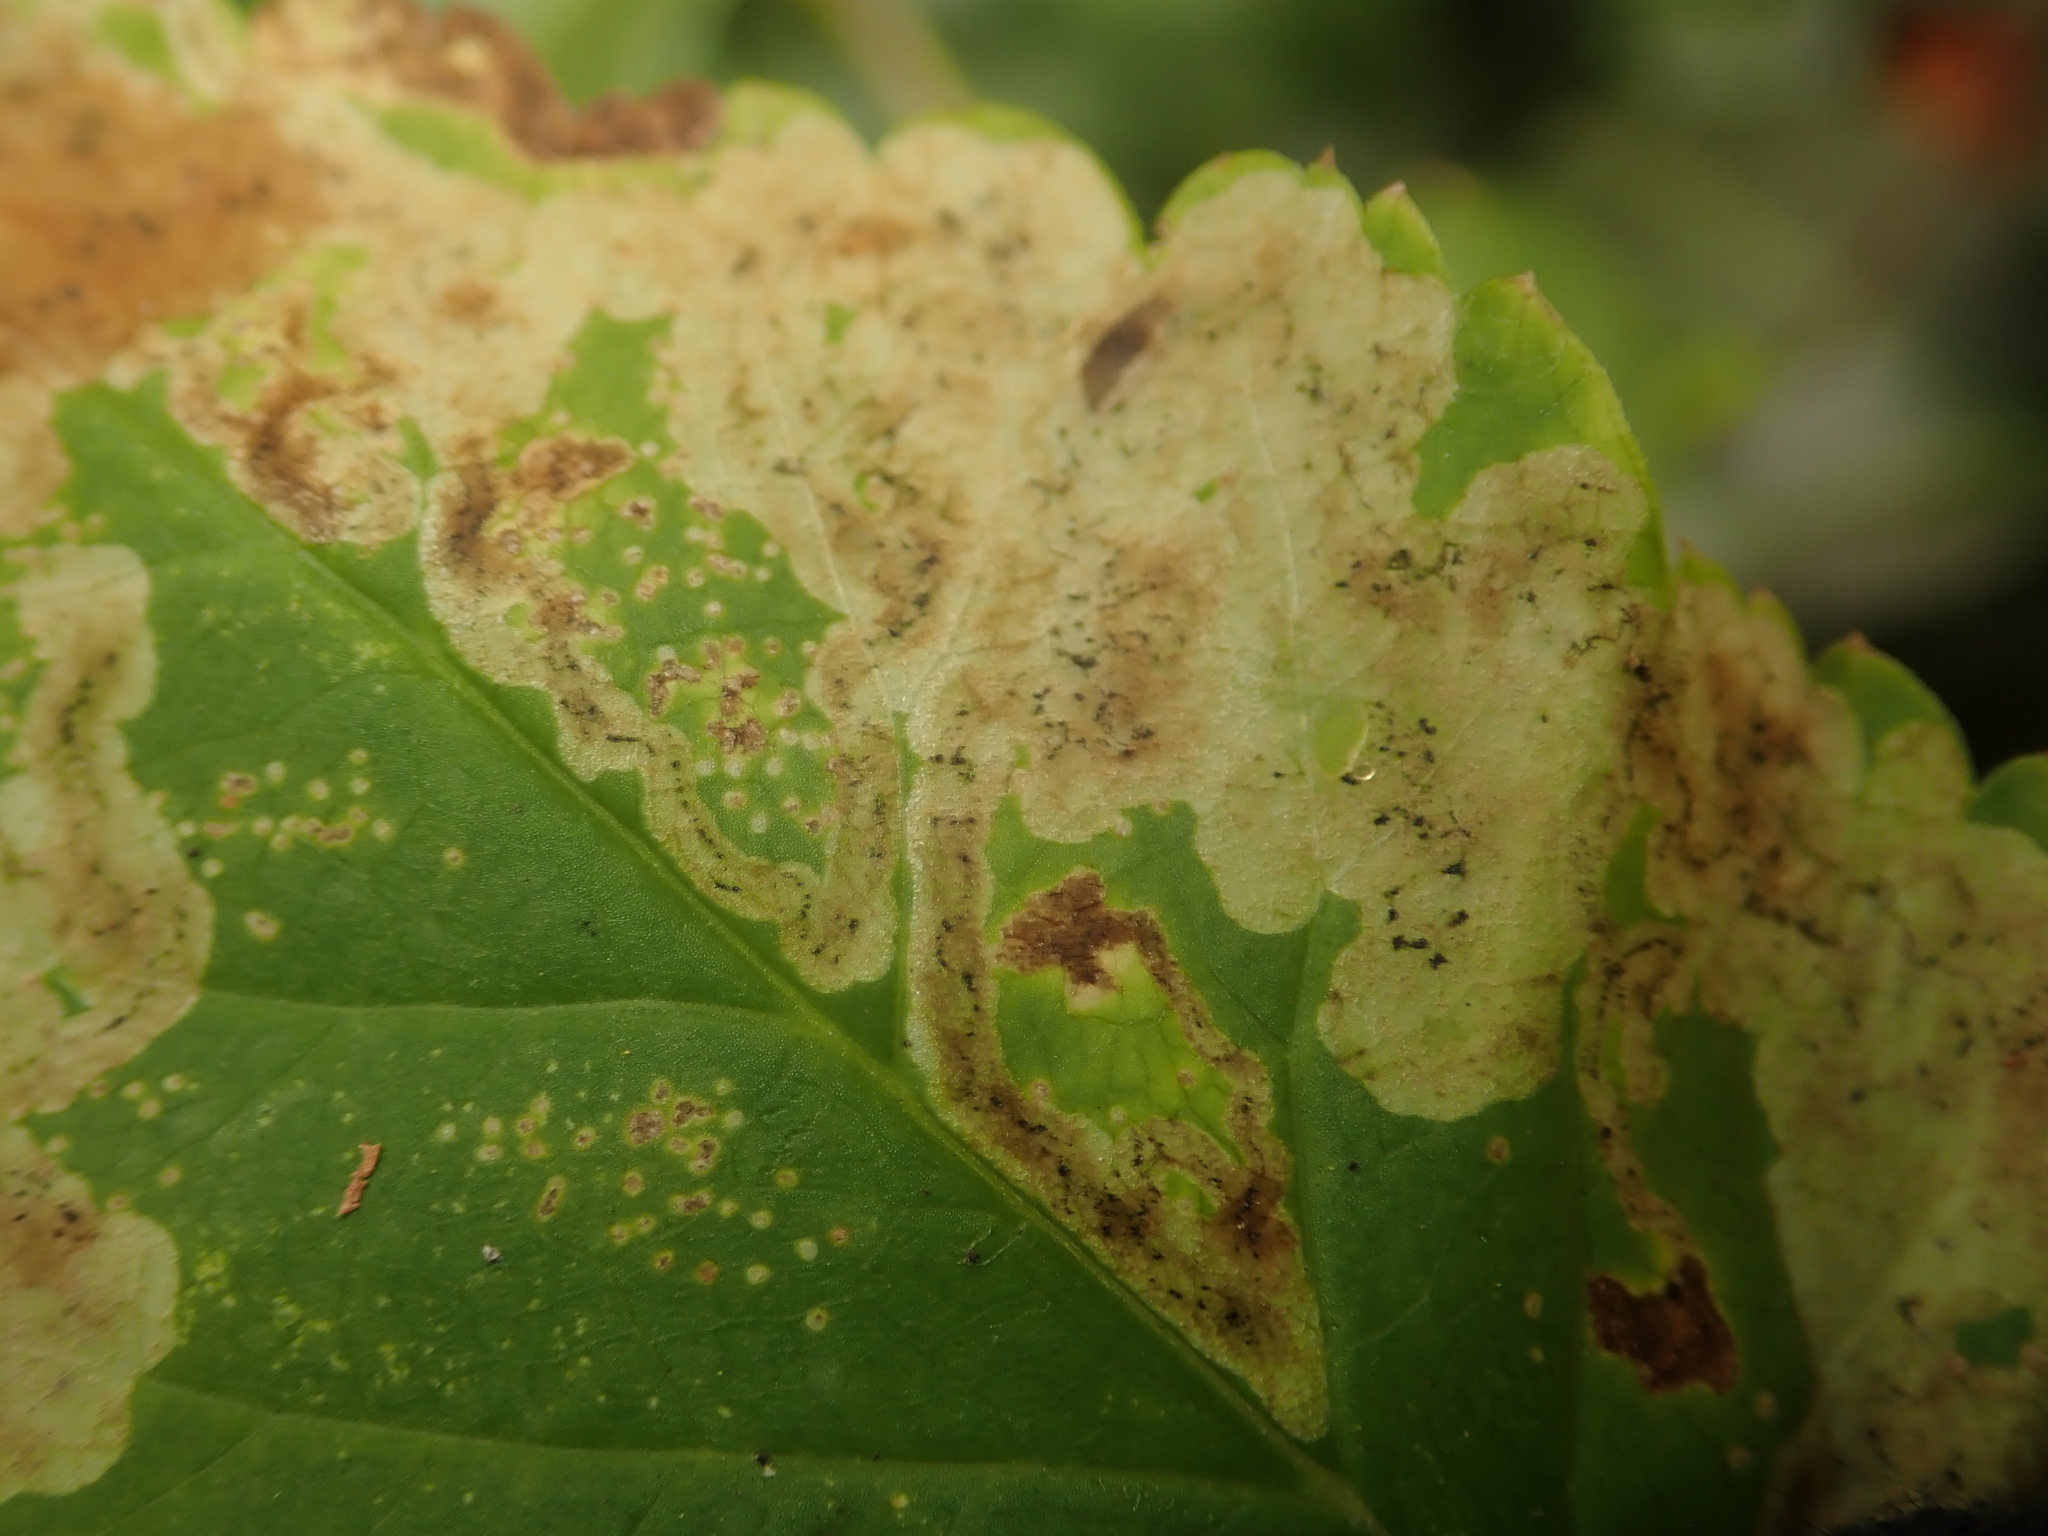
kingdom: Animalia
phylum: Arthropoda
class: Insecta
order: Diptera
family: Agromyzidae
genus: Phytomyza
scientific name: Phytomyza obscurella
